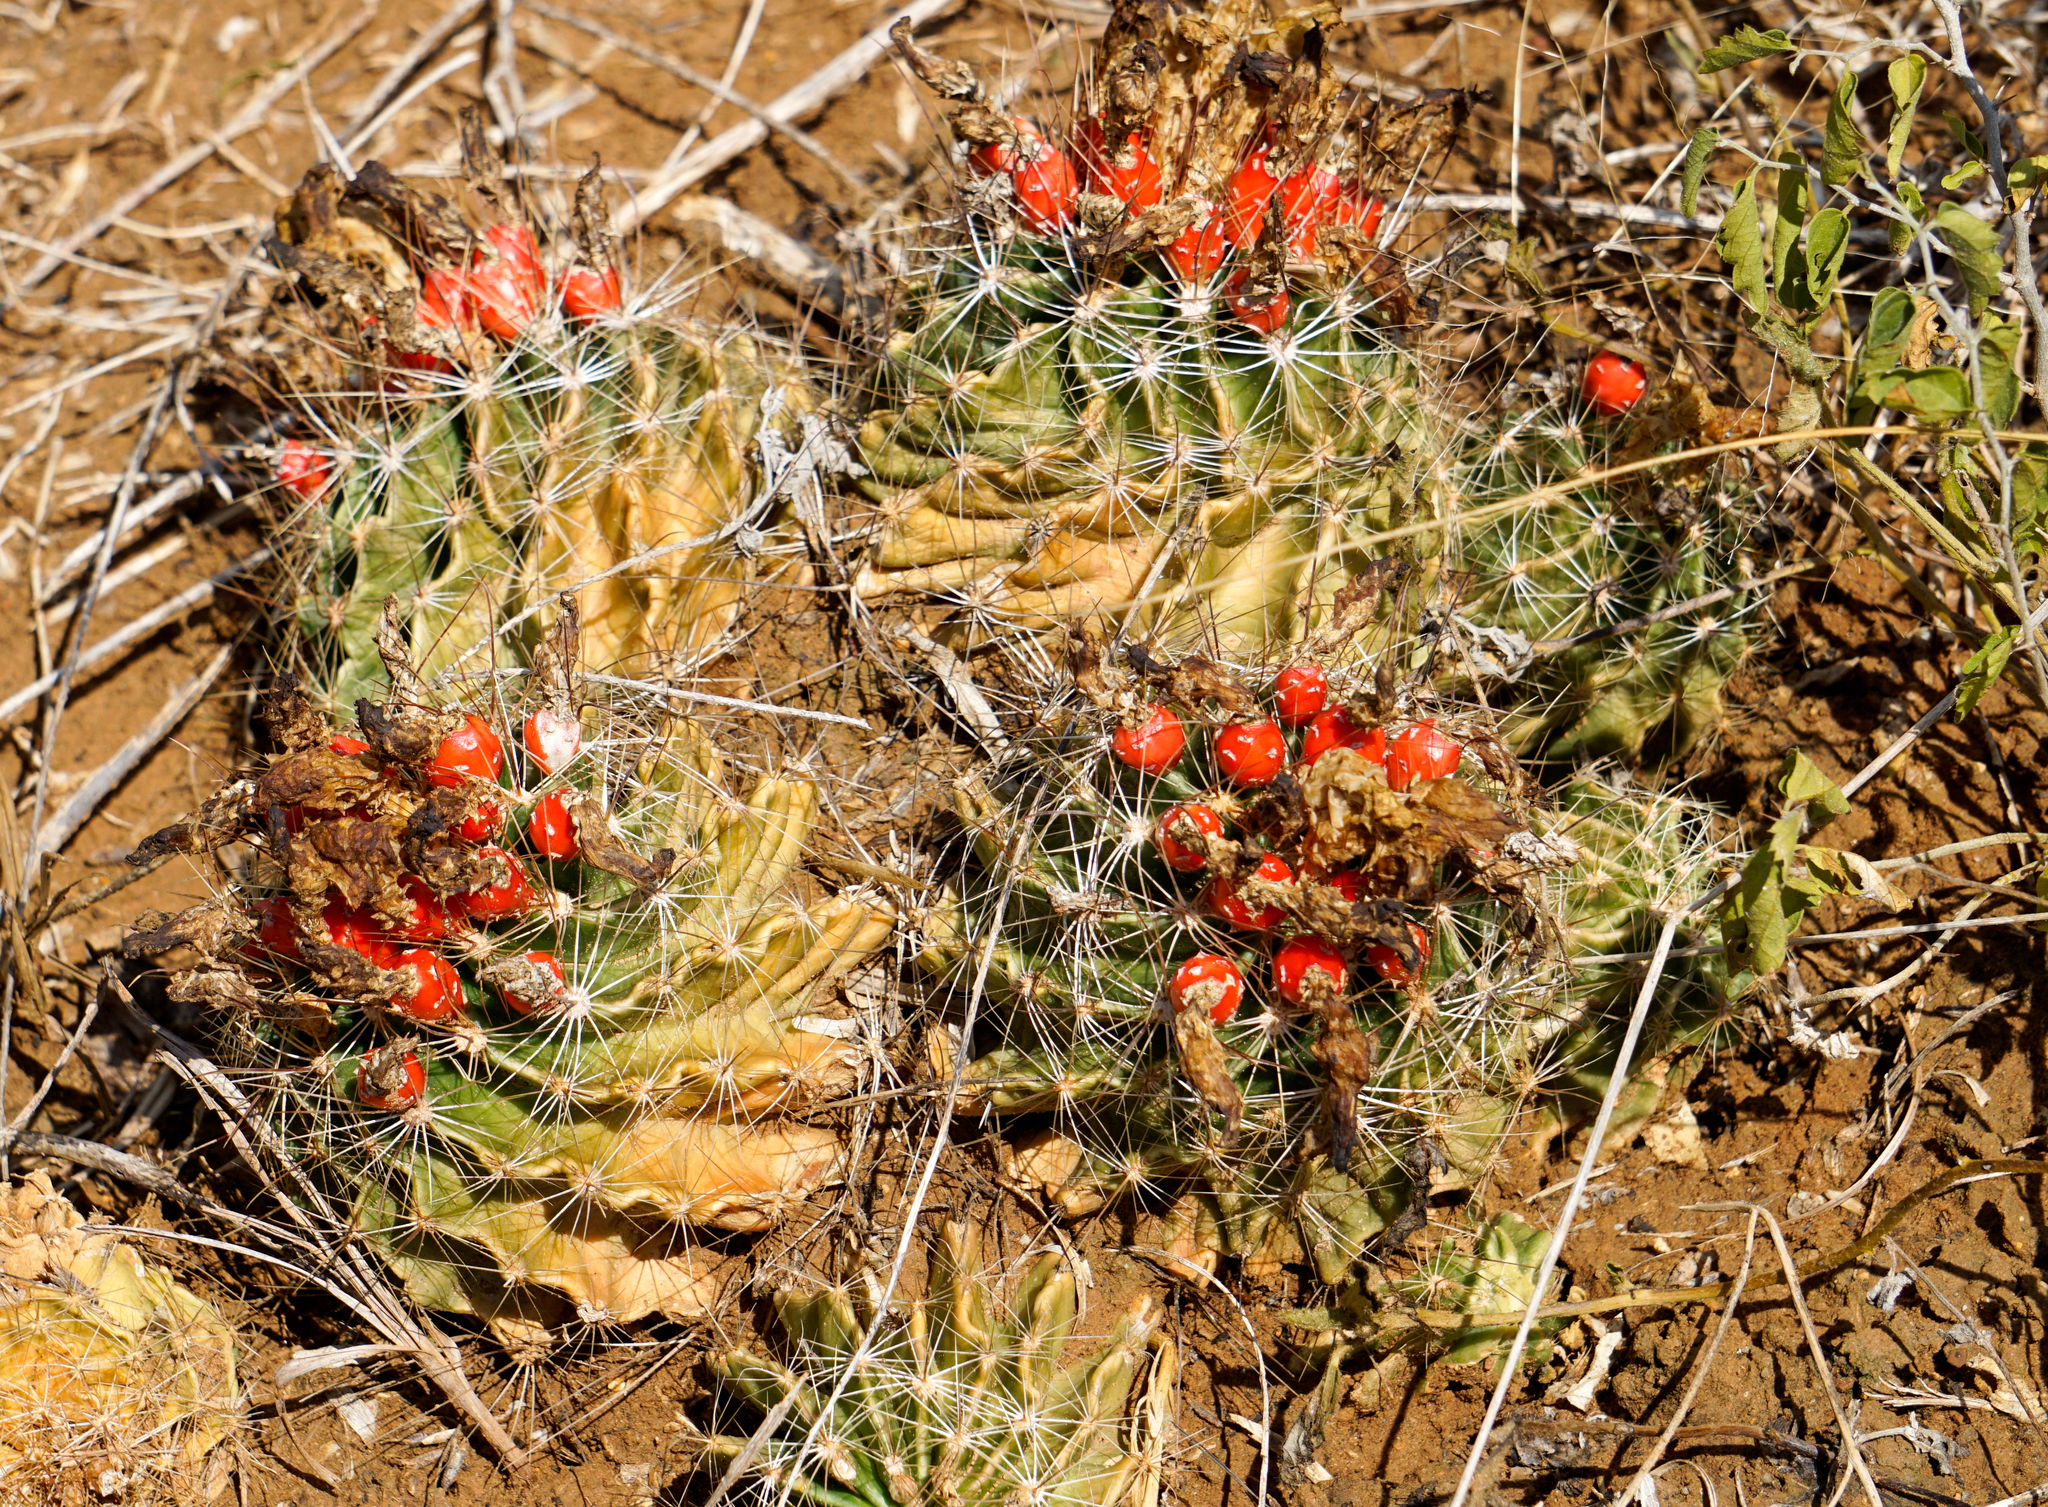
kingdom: Plantae
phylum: Tracheophyta
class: Magnoliopsida
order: Caryophyllales
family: Cactaceae
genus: Thelocactus
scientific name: Thelocactus setispinus
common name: Miniature barrel cactus
